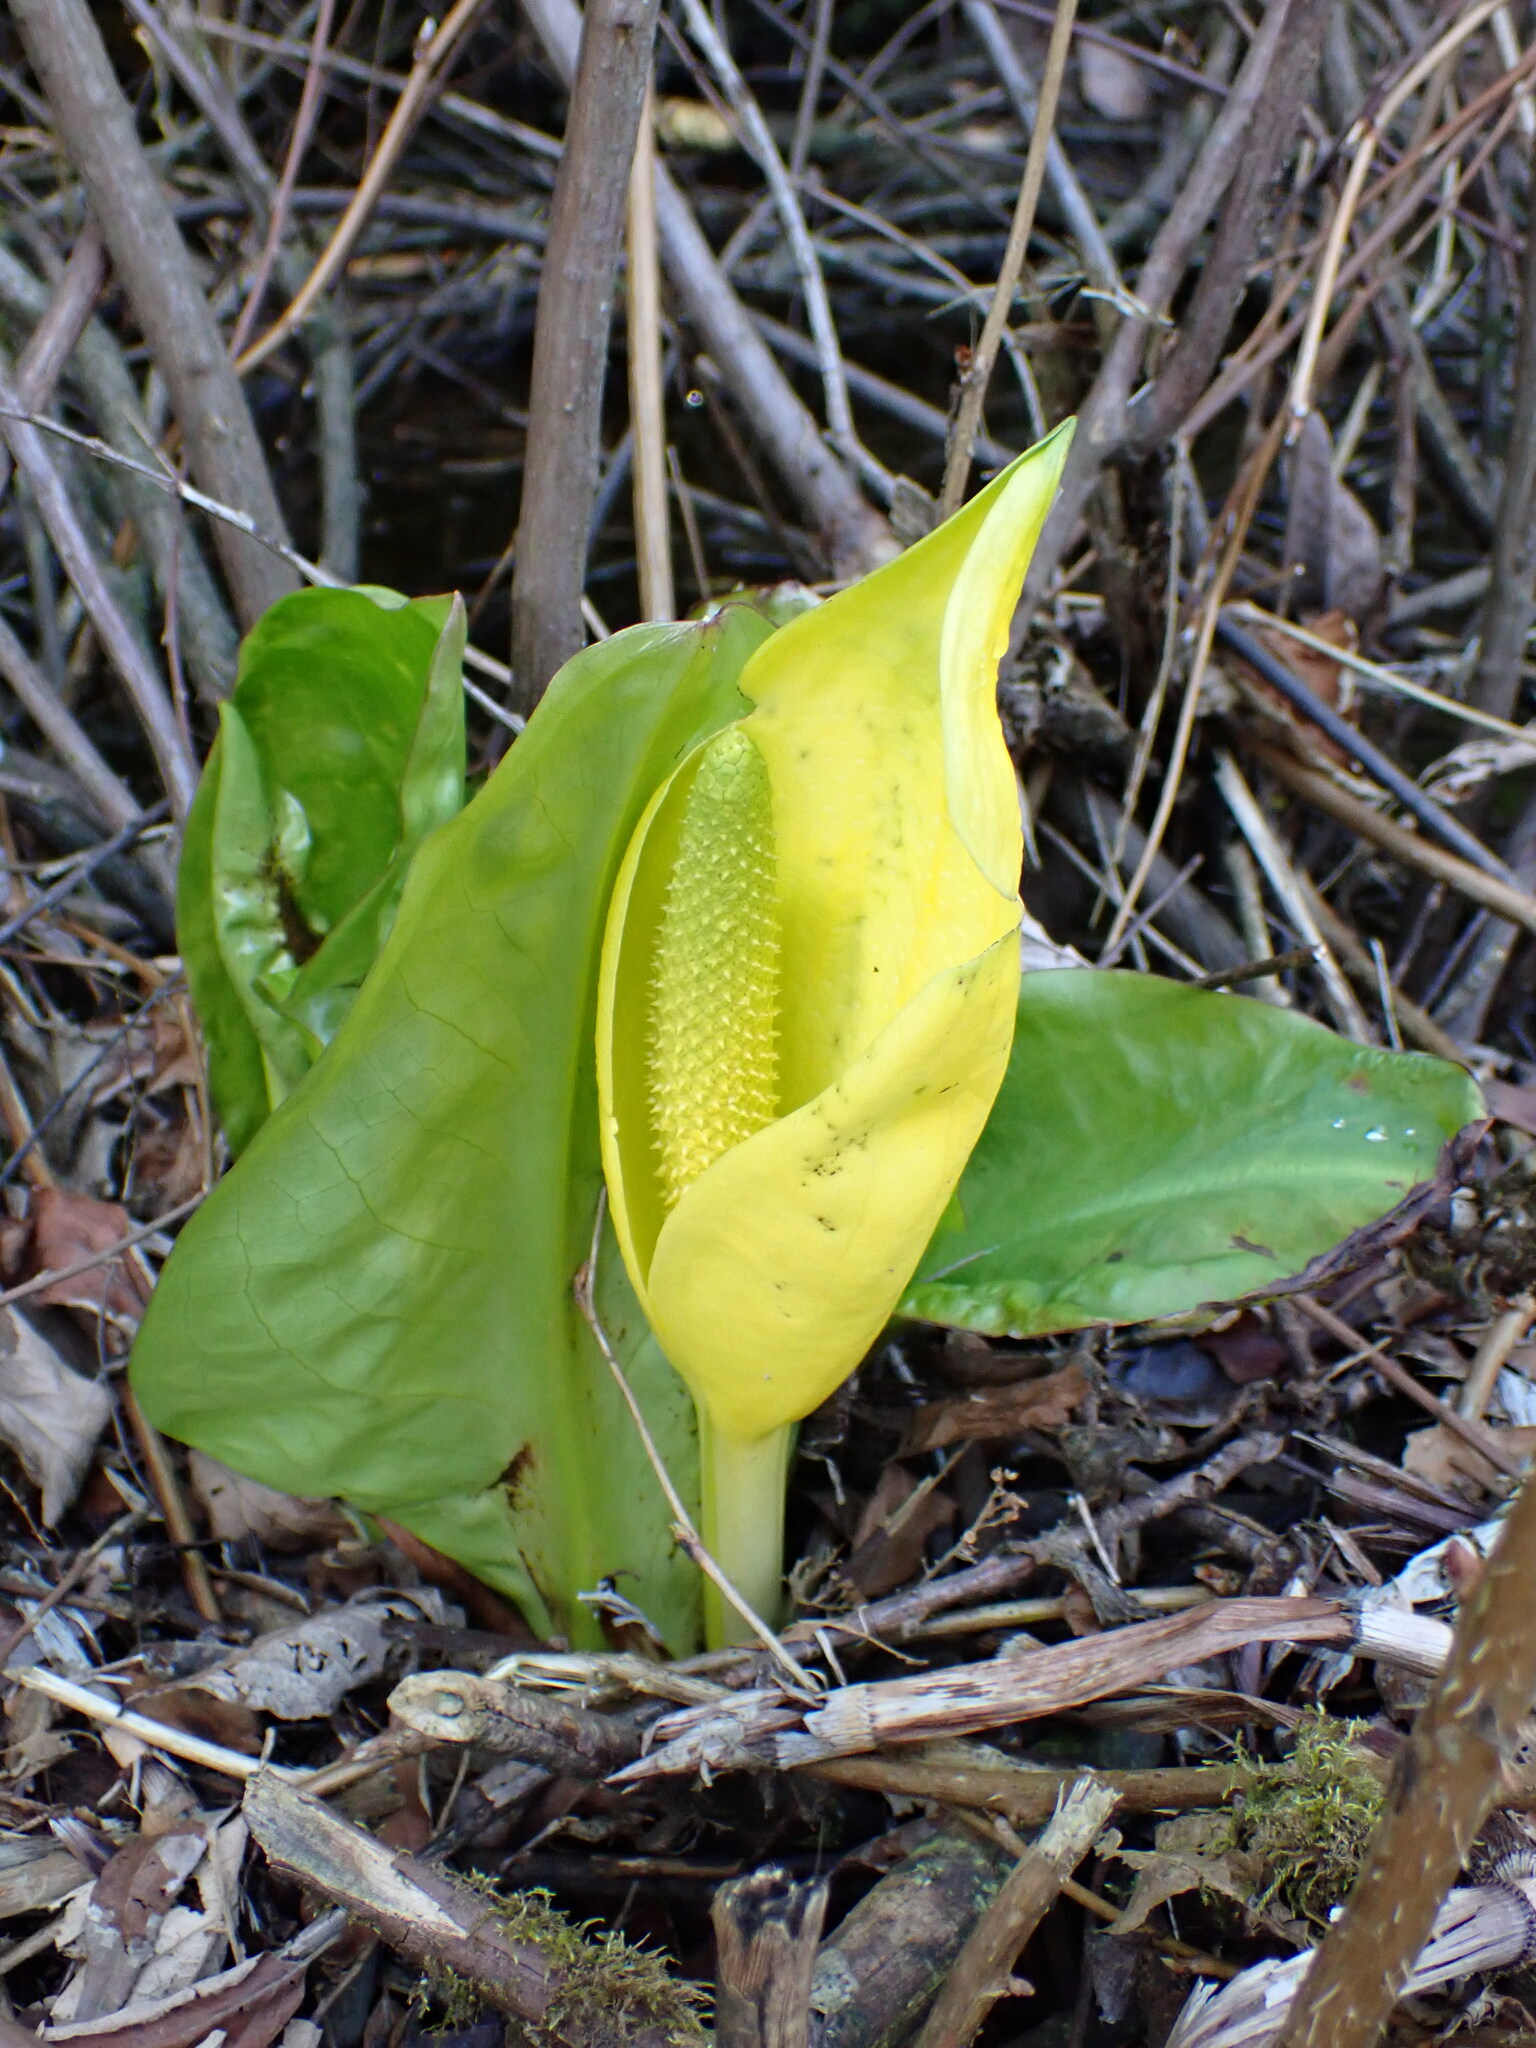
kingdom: Plantae
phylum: Tracheophyta
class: Liliopsida
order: Alismatales
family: Araceae
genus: Lysichiton
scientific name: Lysichiton americanus
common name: American skunk cabbage
